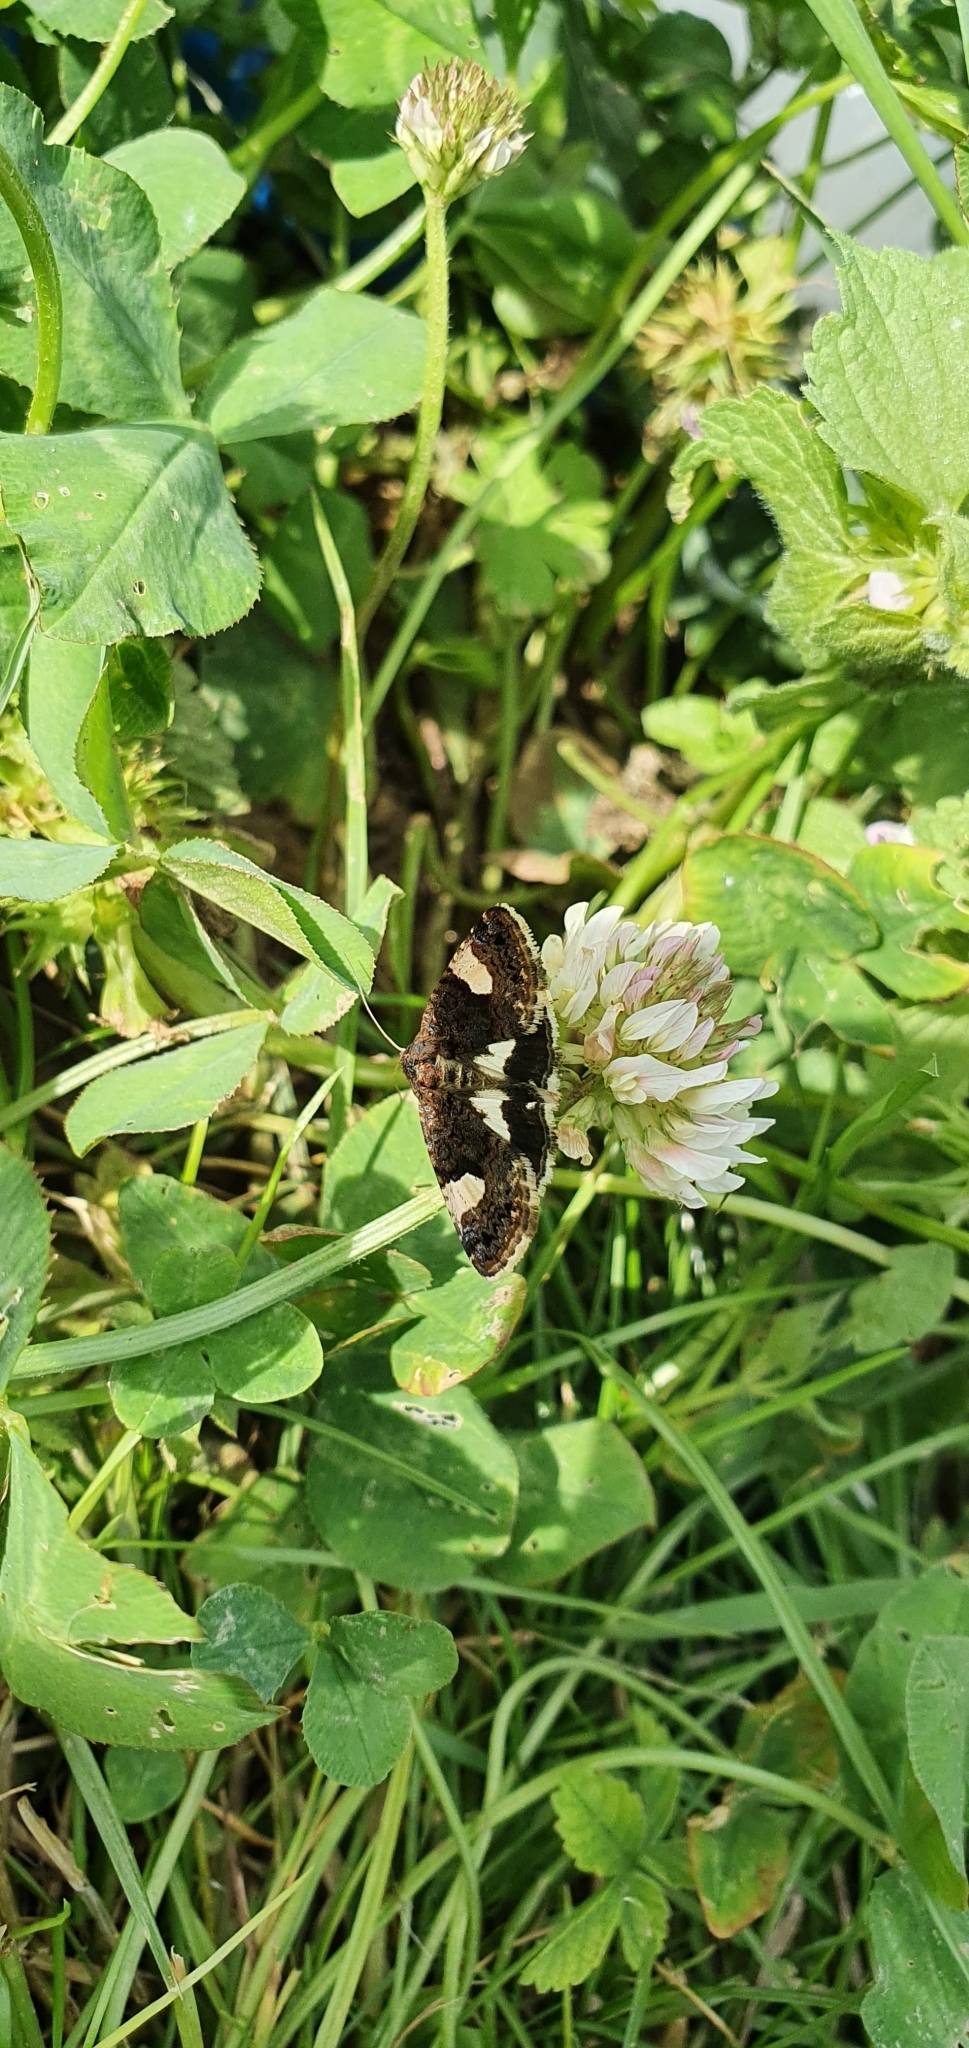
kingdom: Animalia
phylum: Arthropoda
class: Insecta
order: Lepidoptera
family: Erebidae
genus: Tyta
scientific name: Tyta luctuosa
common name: Four-spotted
